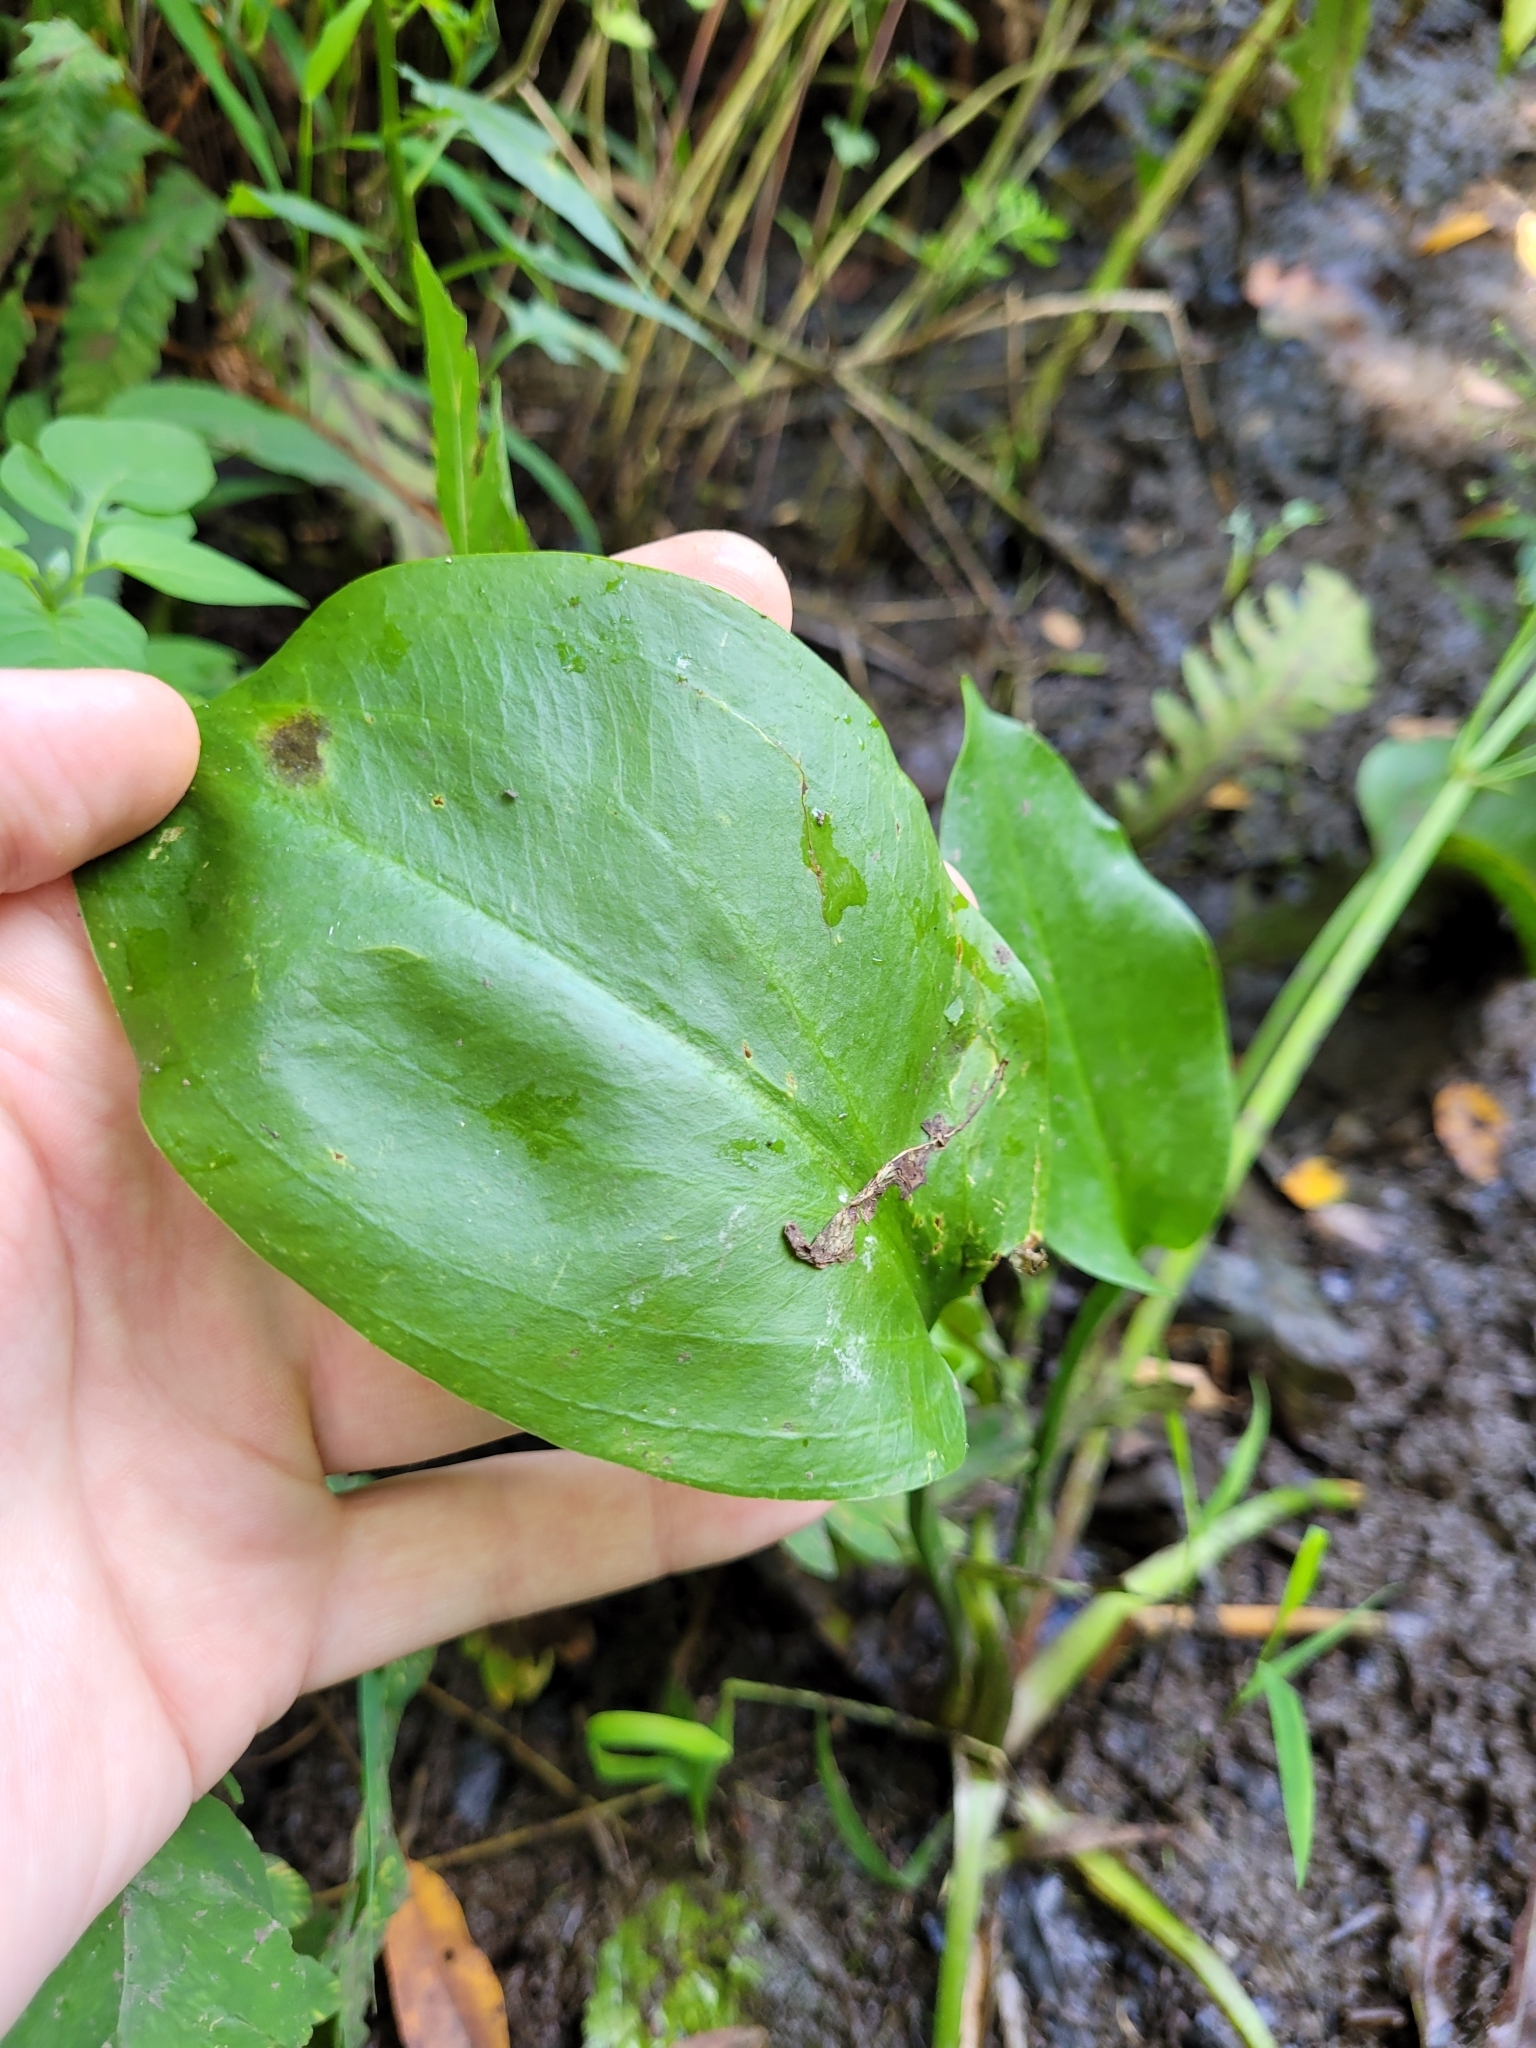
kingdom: Plantae
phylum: Tracheophyta
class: Liliopsida
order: Alismatales
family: Alismataceae
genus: Alisma
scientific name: Alisma subcordatum
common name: Southern water-plantain
